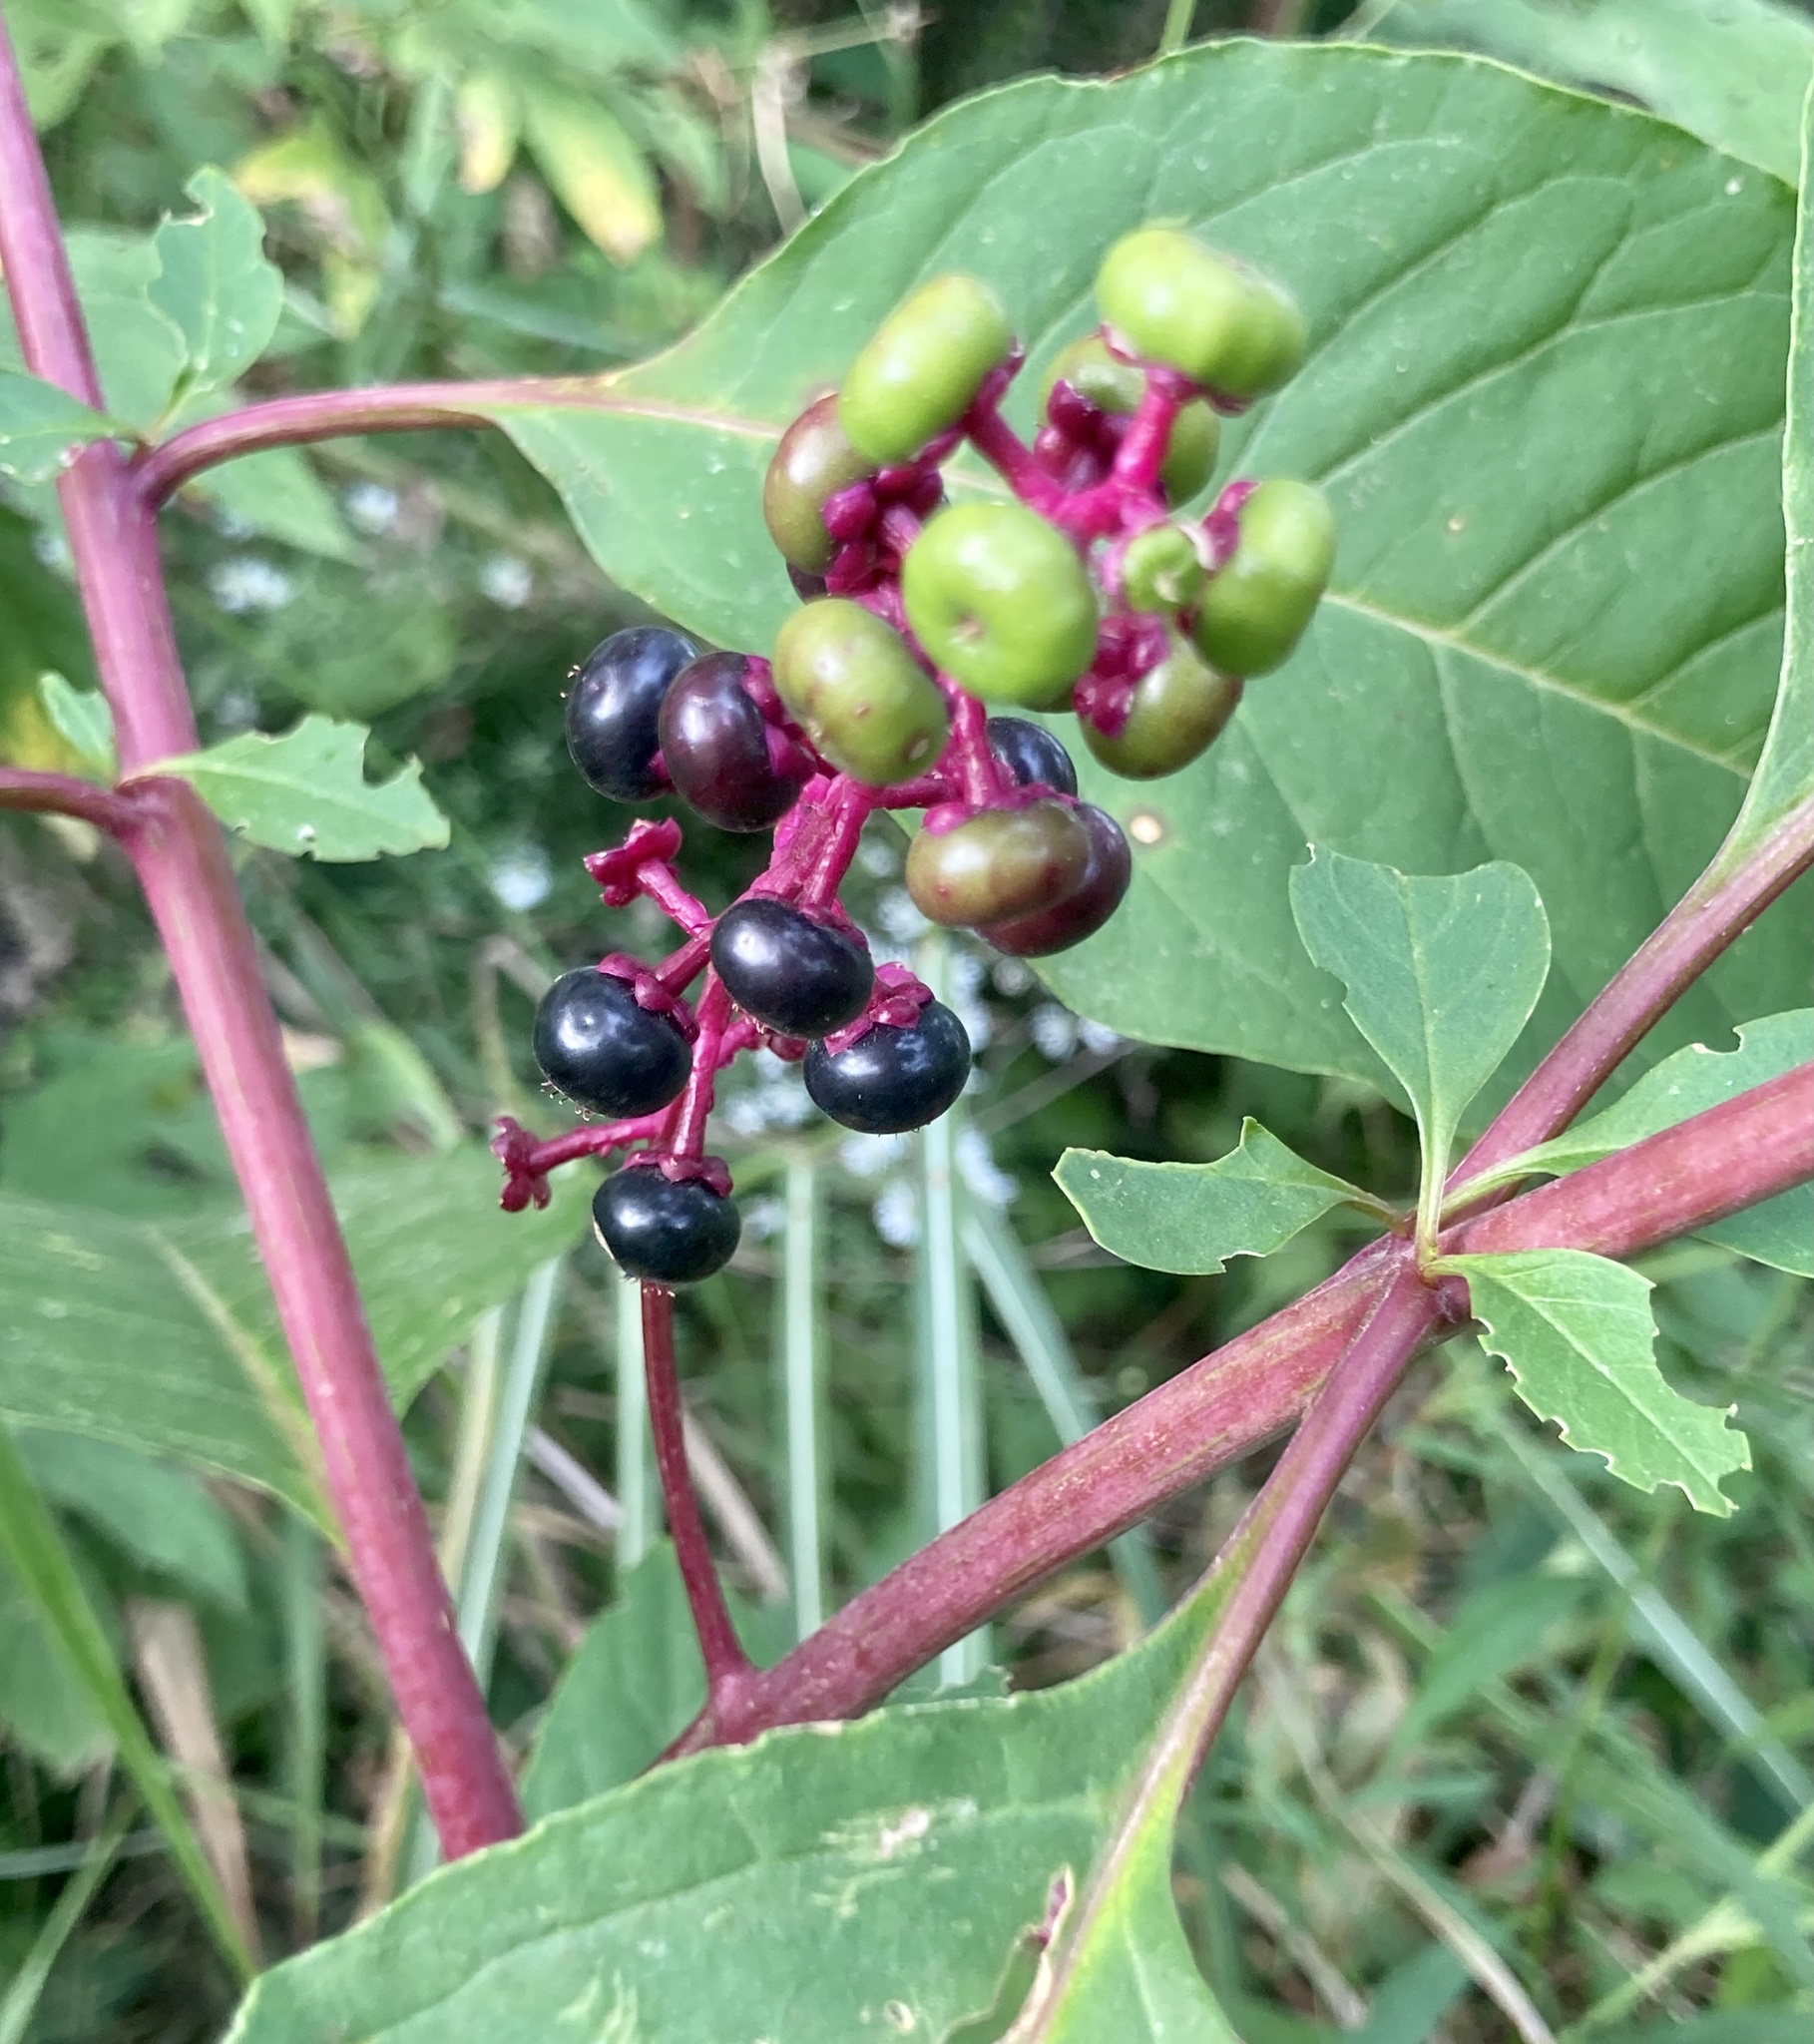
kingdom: Plantae
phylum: Tracheophyta
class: Magnoliopsida
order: Caryophyllales
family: Phytolaccaceae
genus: Phytolacca
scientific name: Phytolacca americana
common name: American pokeweed
